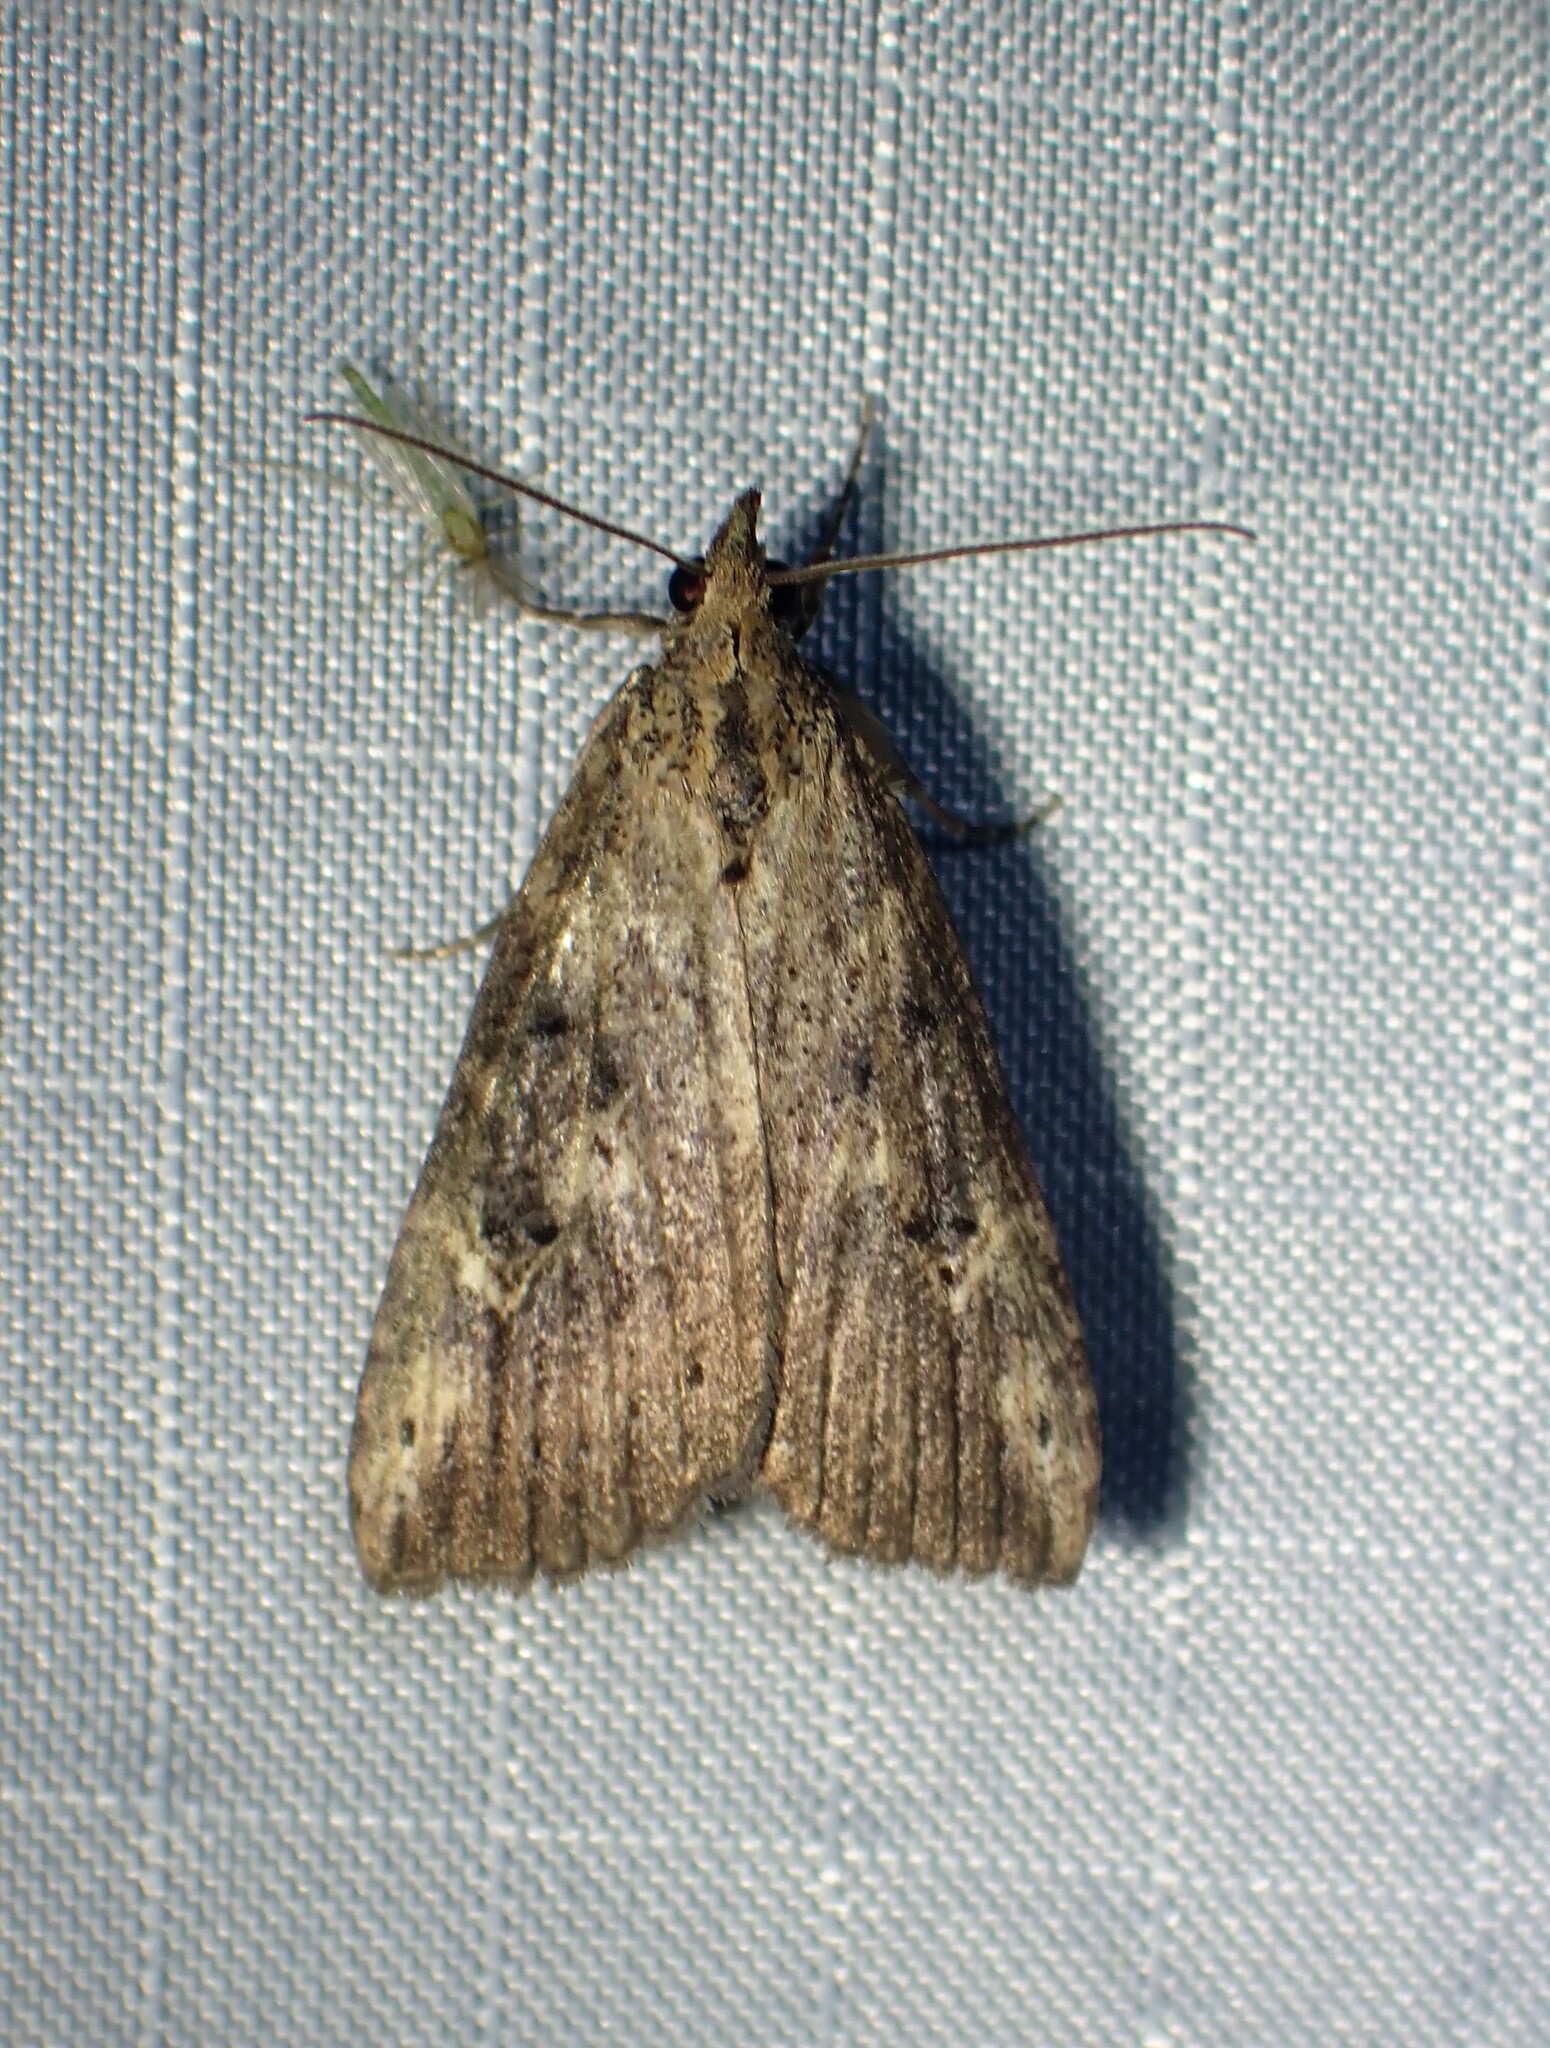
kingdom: Animalia
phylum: Arthropoda
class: Insecta
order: Lepidoptera
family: Erebidae
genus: Hypena
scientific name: Hypena humuli
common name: Hop vine snout
